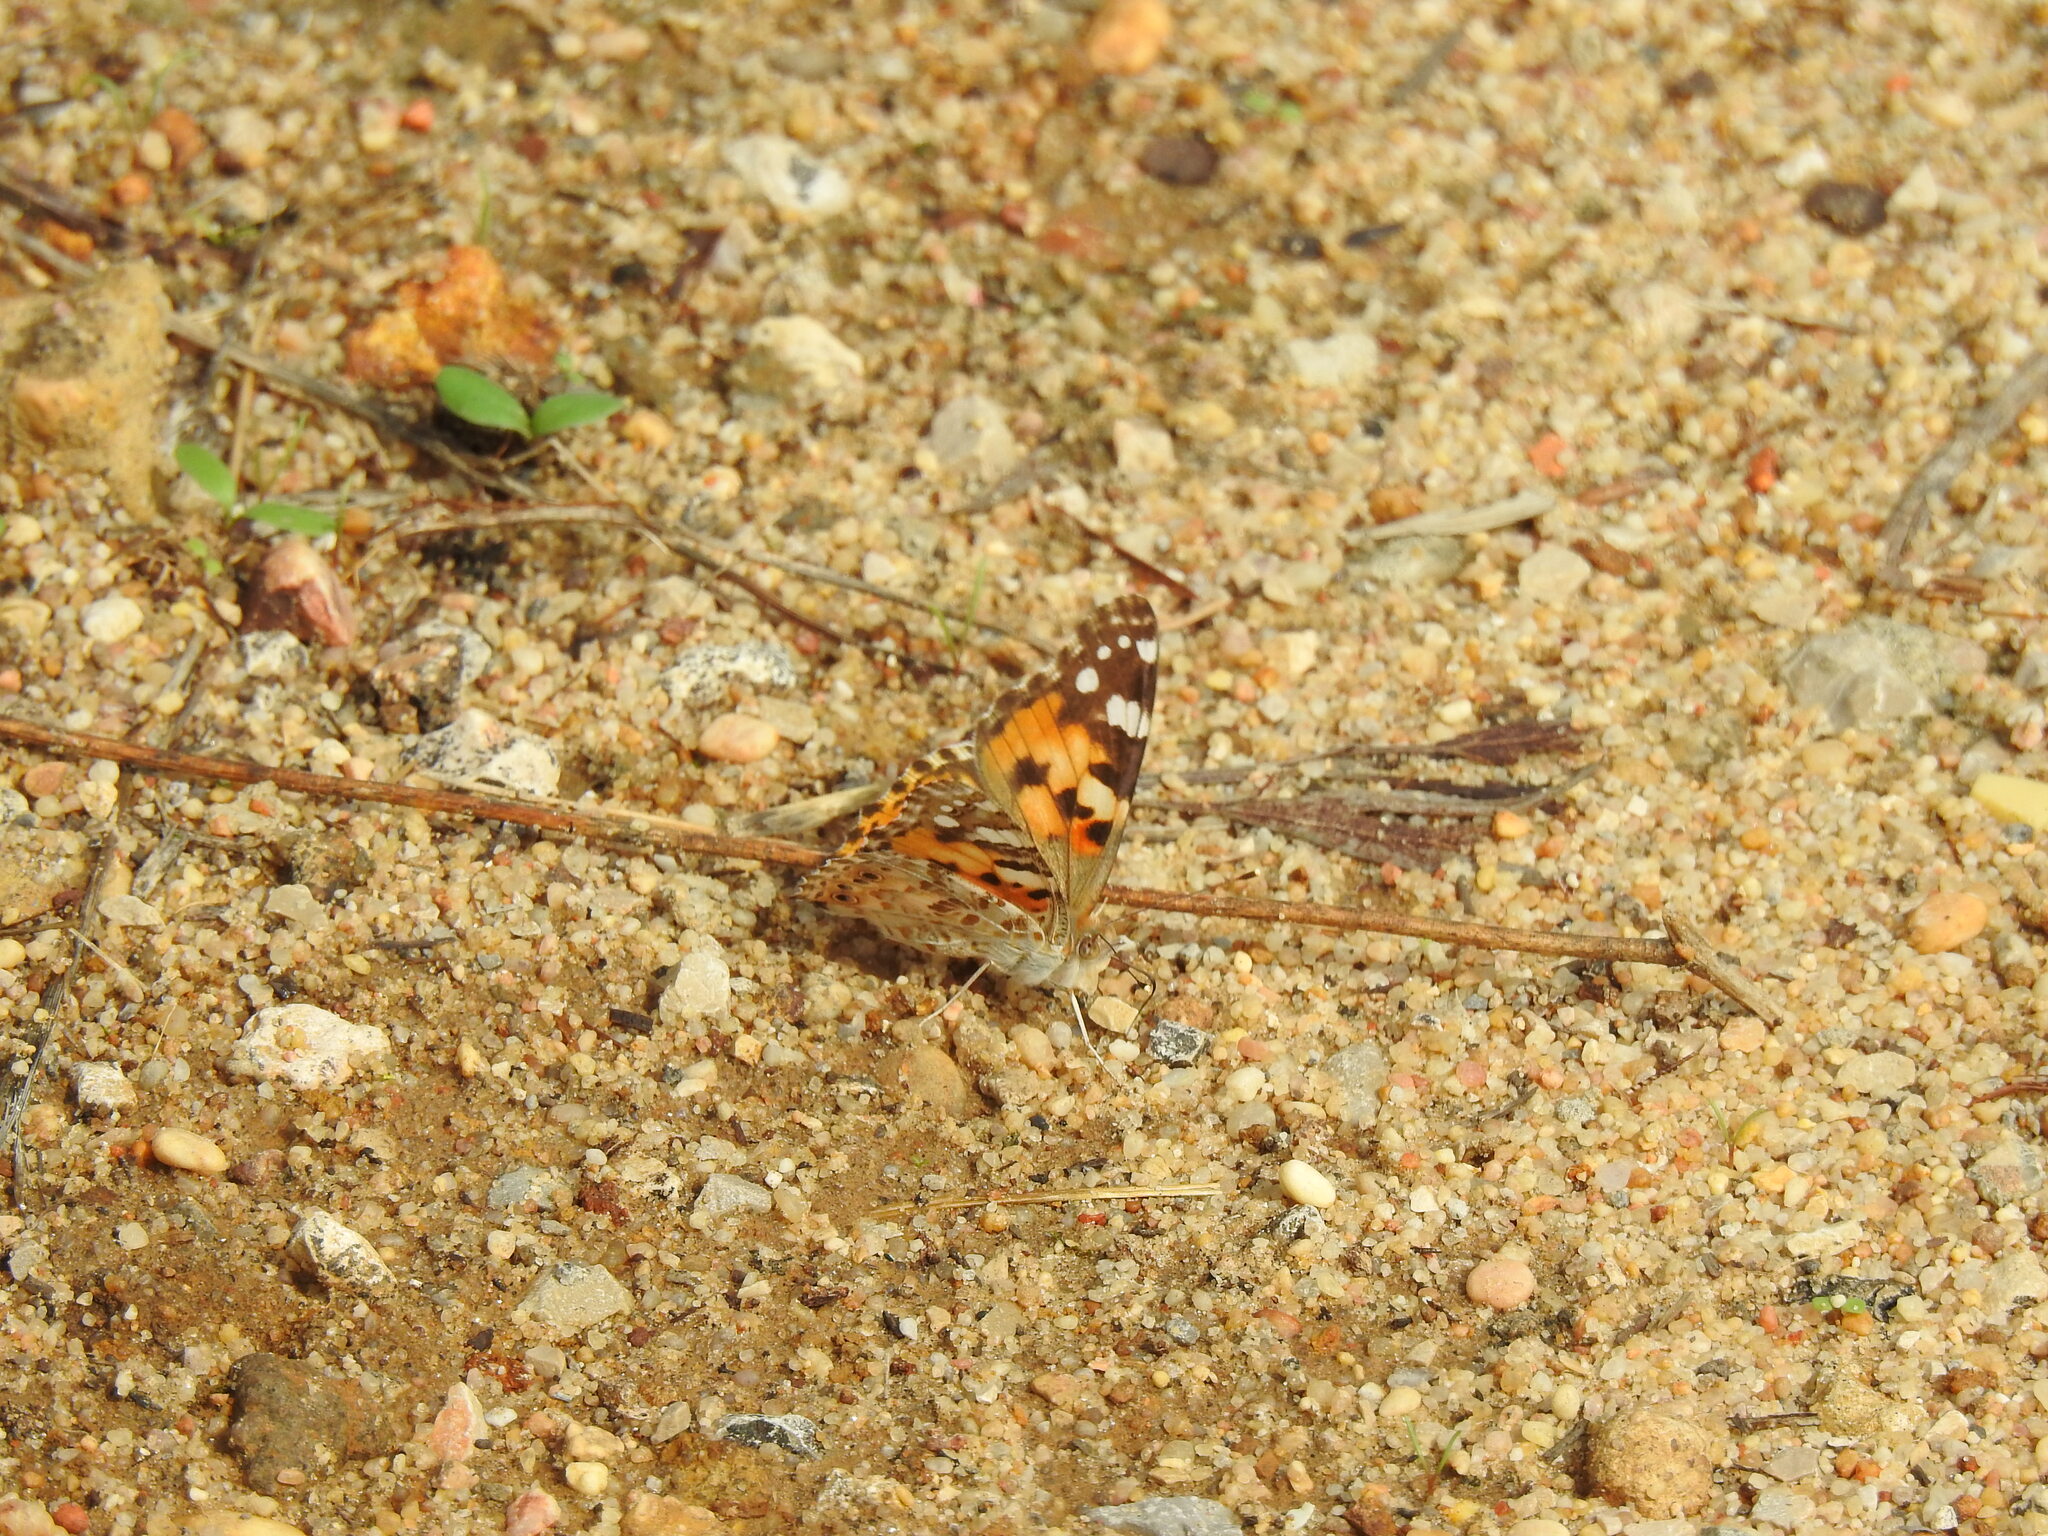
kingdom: Animalia
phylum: Arthropoda
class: Insecta
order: Lepidoptera
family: Nymphalidae
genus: Vanessa
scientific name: Vanessa cardui
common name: Painted lady
